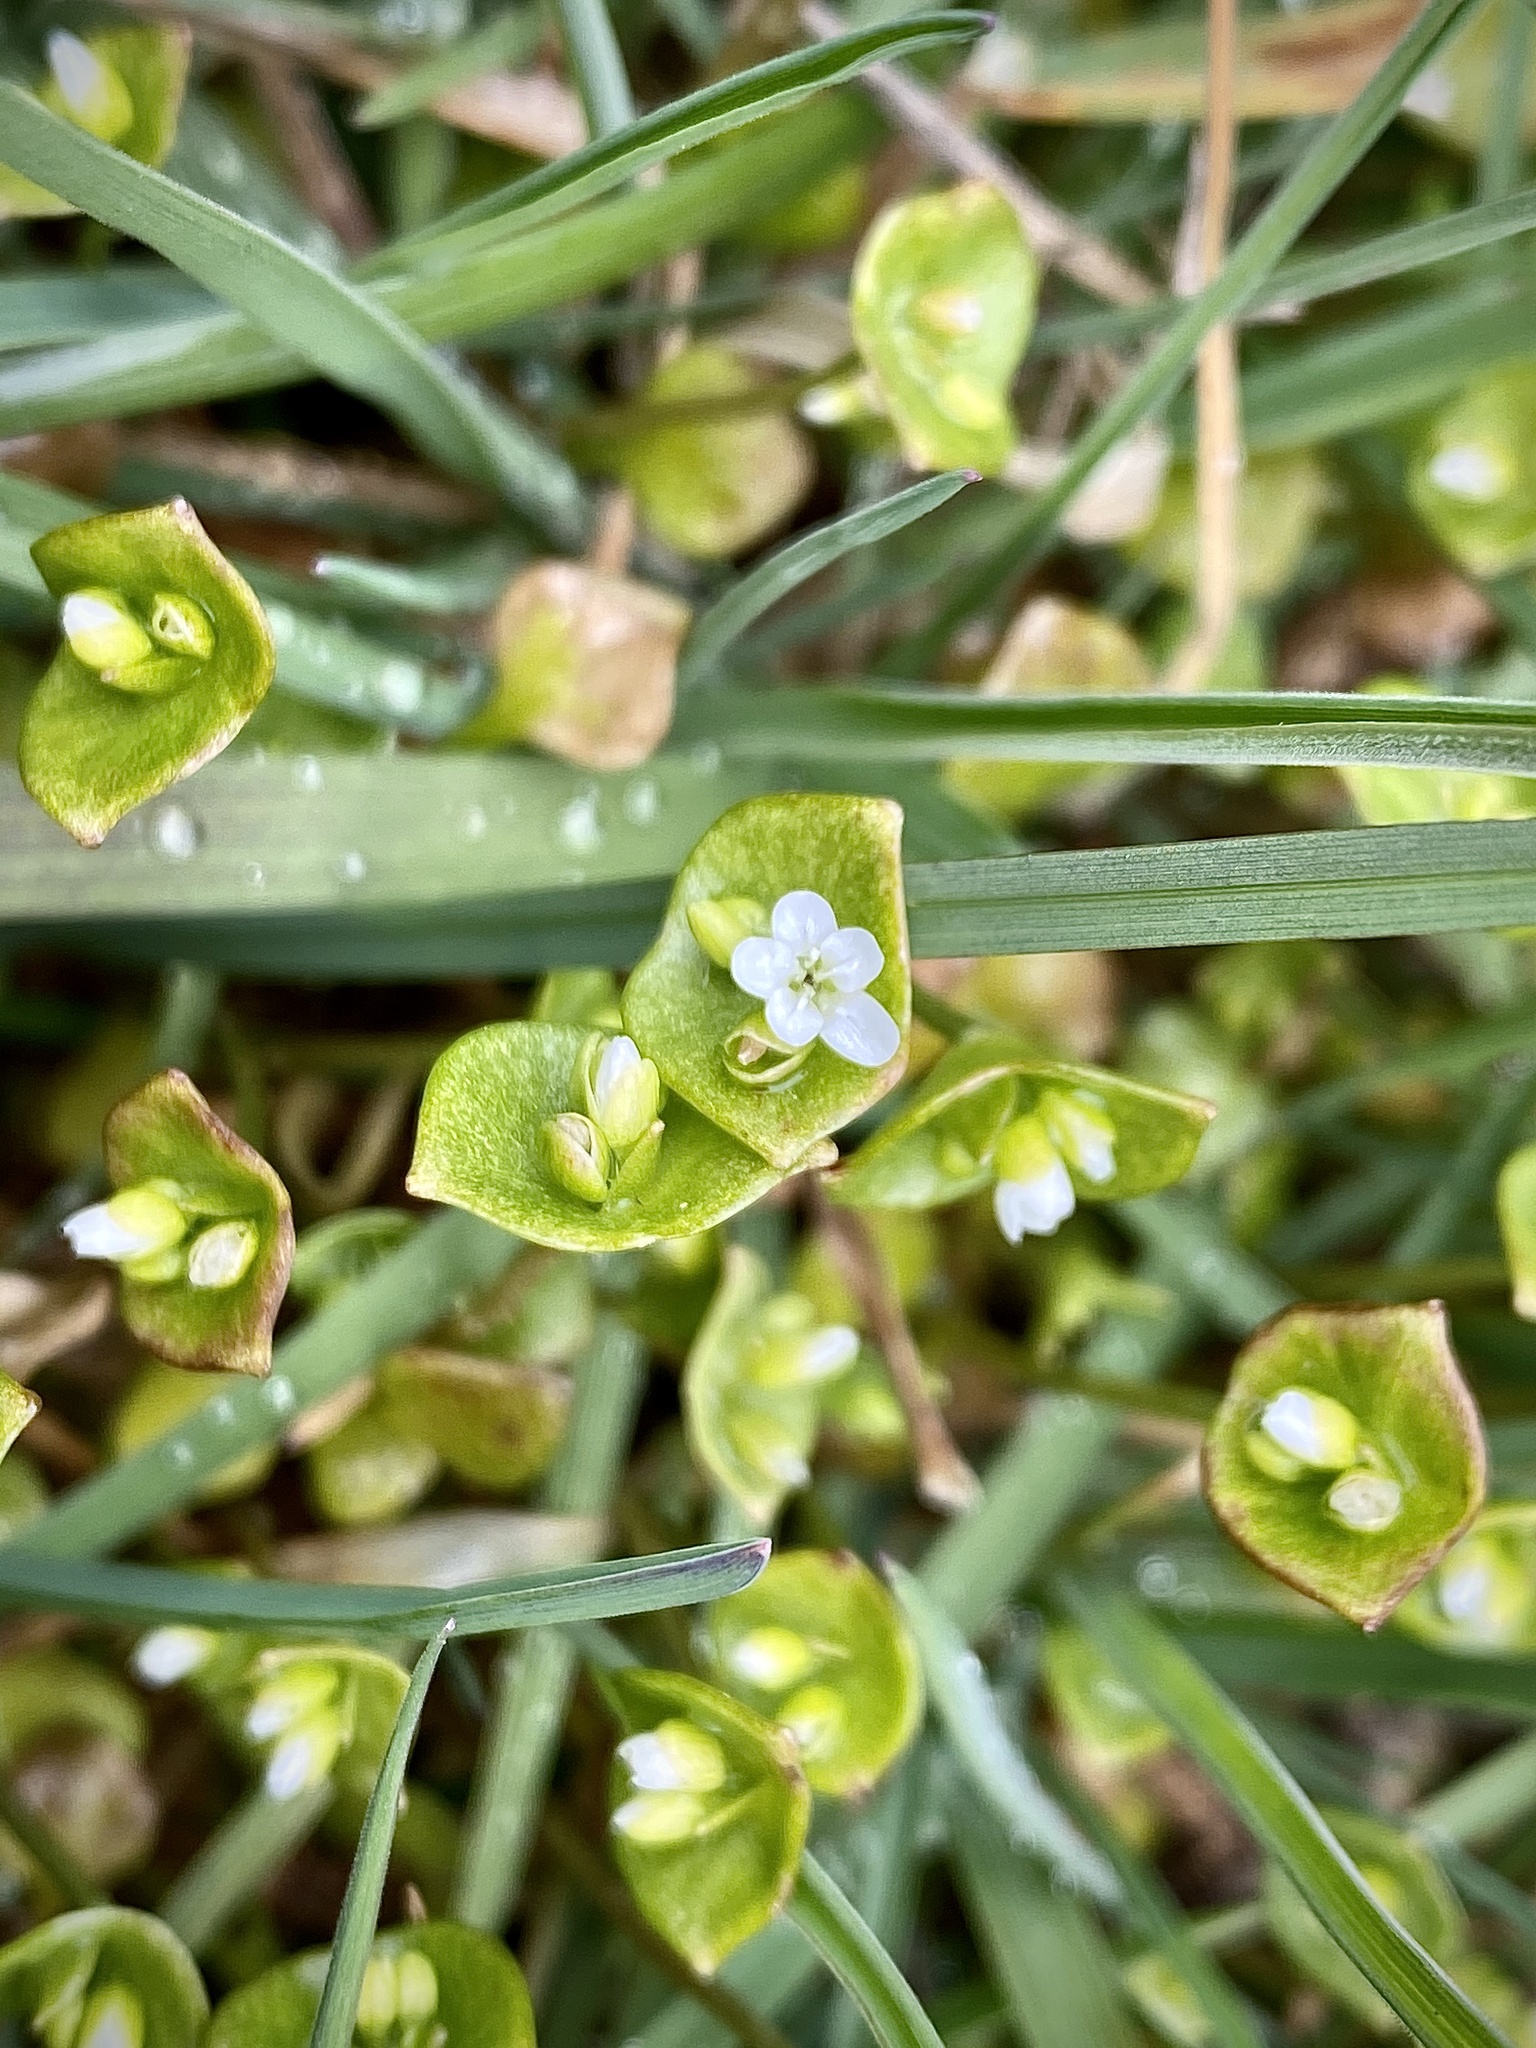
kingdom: Plantae
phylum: Tracheophyta
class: Magnoliopsida
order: Caryophyllales
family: Montiaceae
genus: Claytonia
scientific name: Claytonia perfoliata
